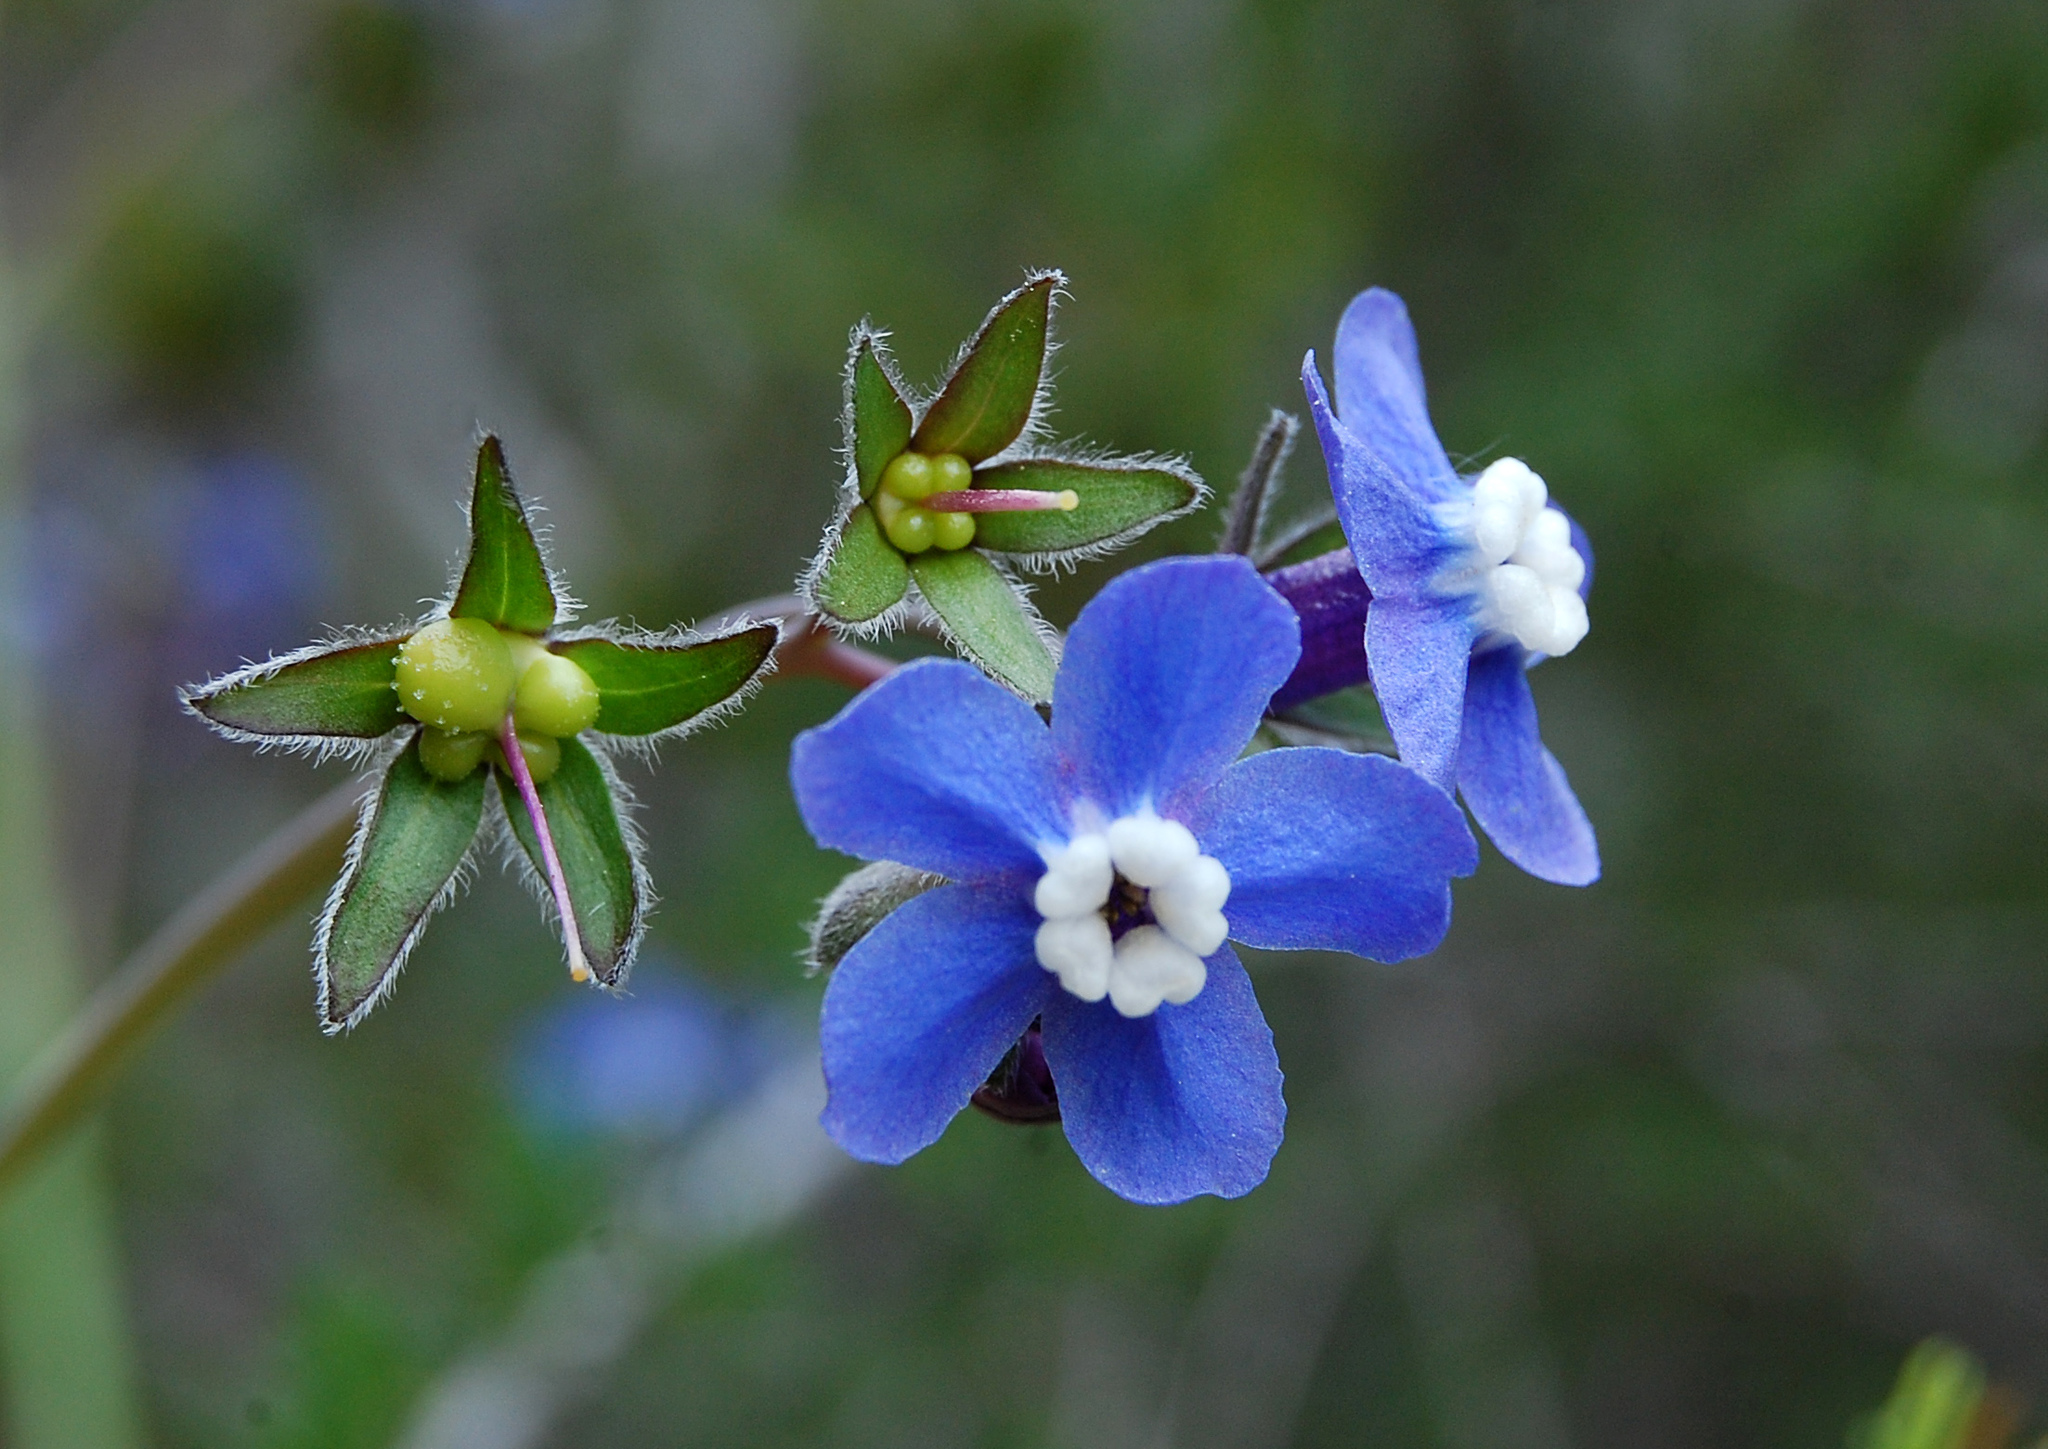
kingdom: Plantae
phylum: Tracheophyta
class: Magnoliopsida
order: Boraginales
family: Boraginaceae
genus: Adelinia
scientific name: Adelinia grande
